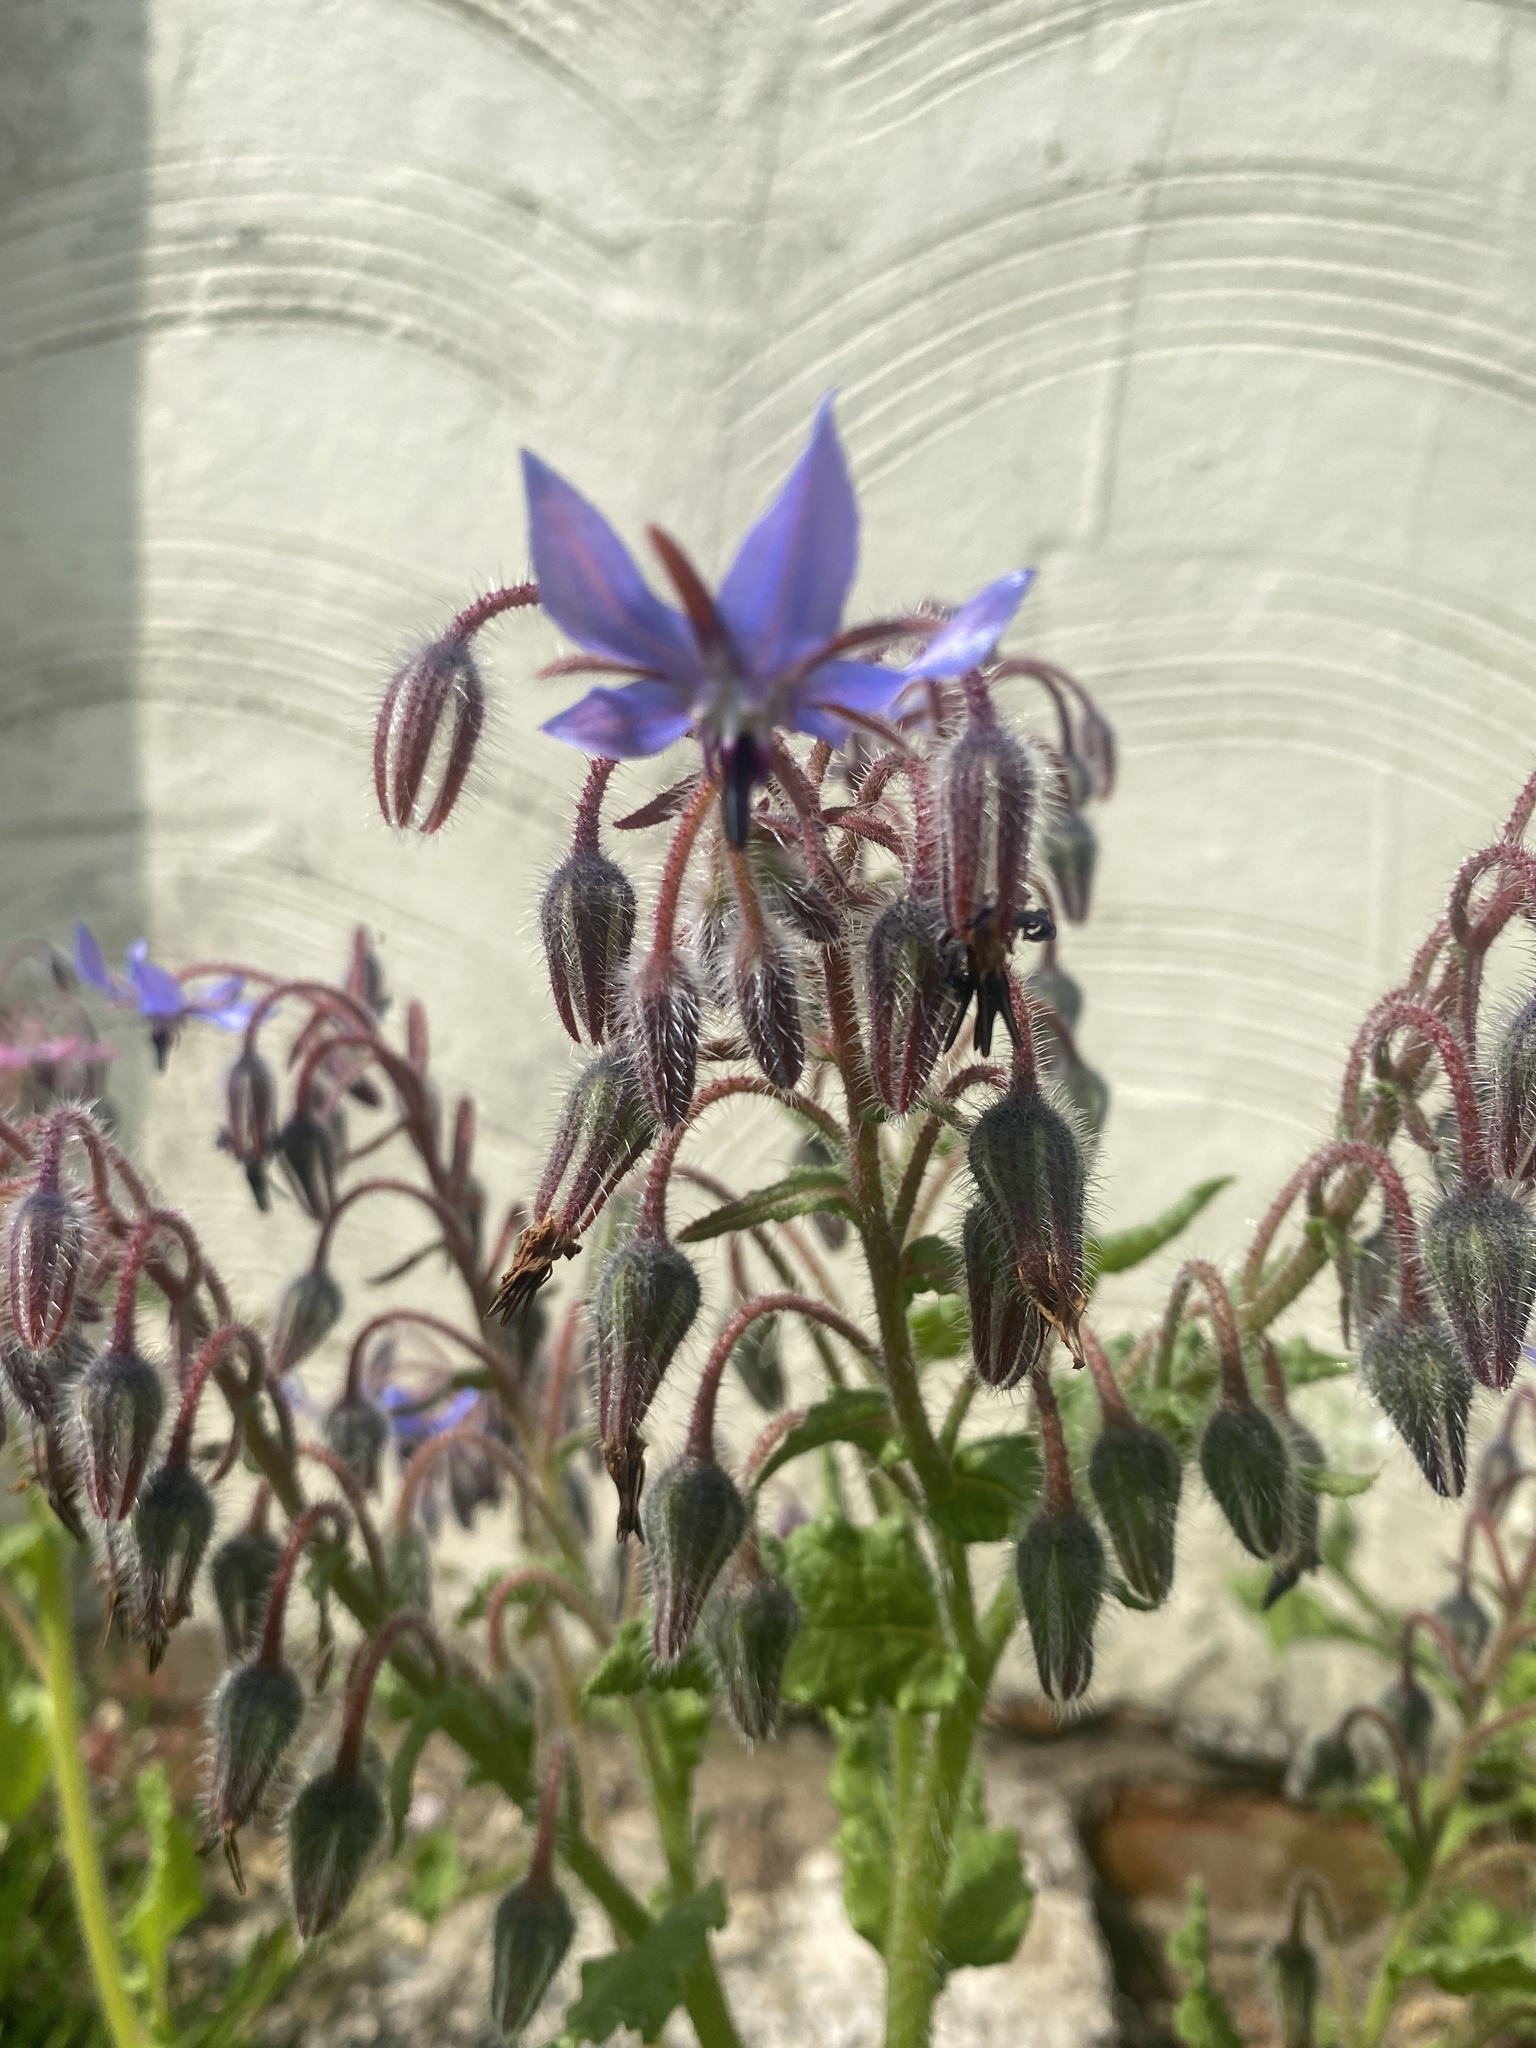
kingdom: Plantae
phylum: Tracheophyta
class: Magnoliopsida
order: Boraginales
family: Boraginaceae
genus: Borago
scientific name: Borago officinalis
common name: Borage
